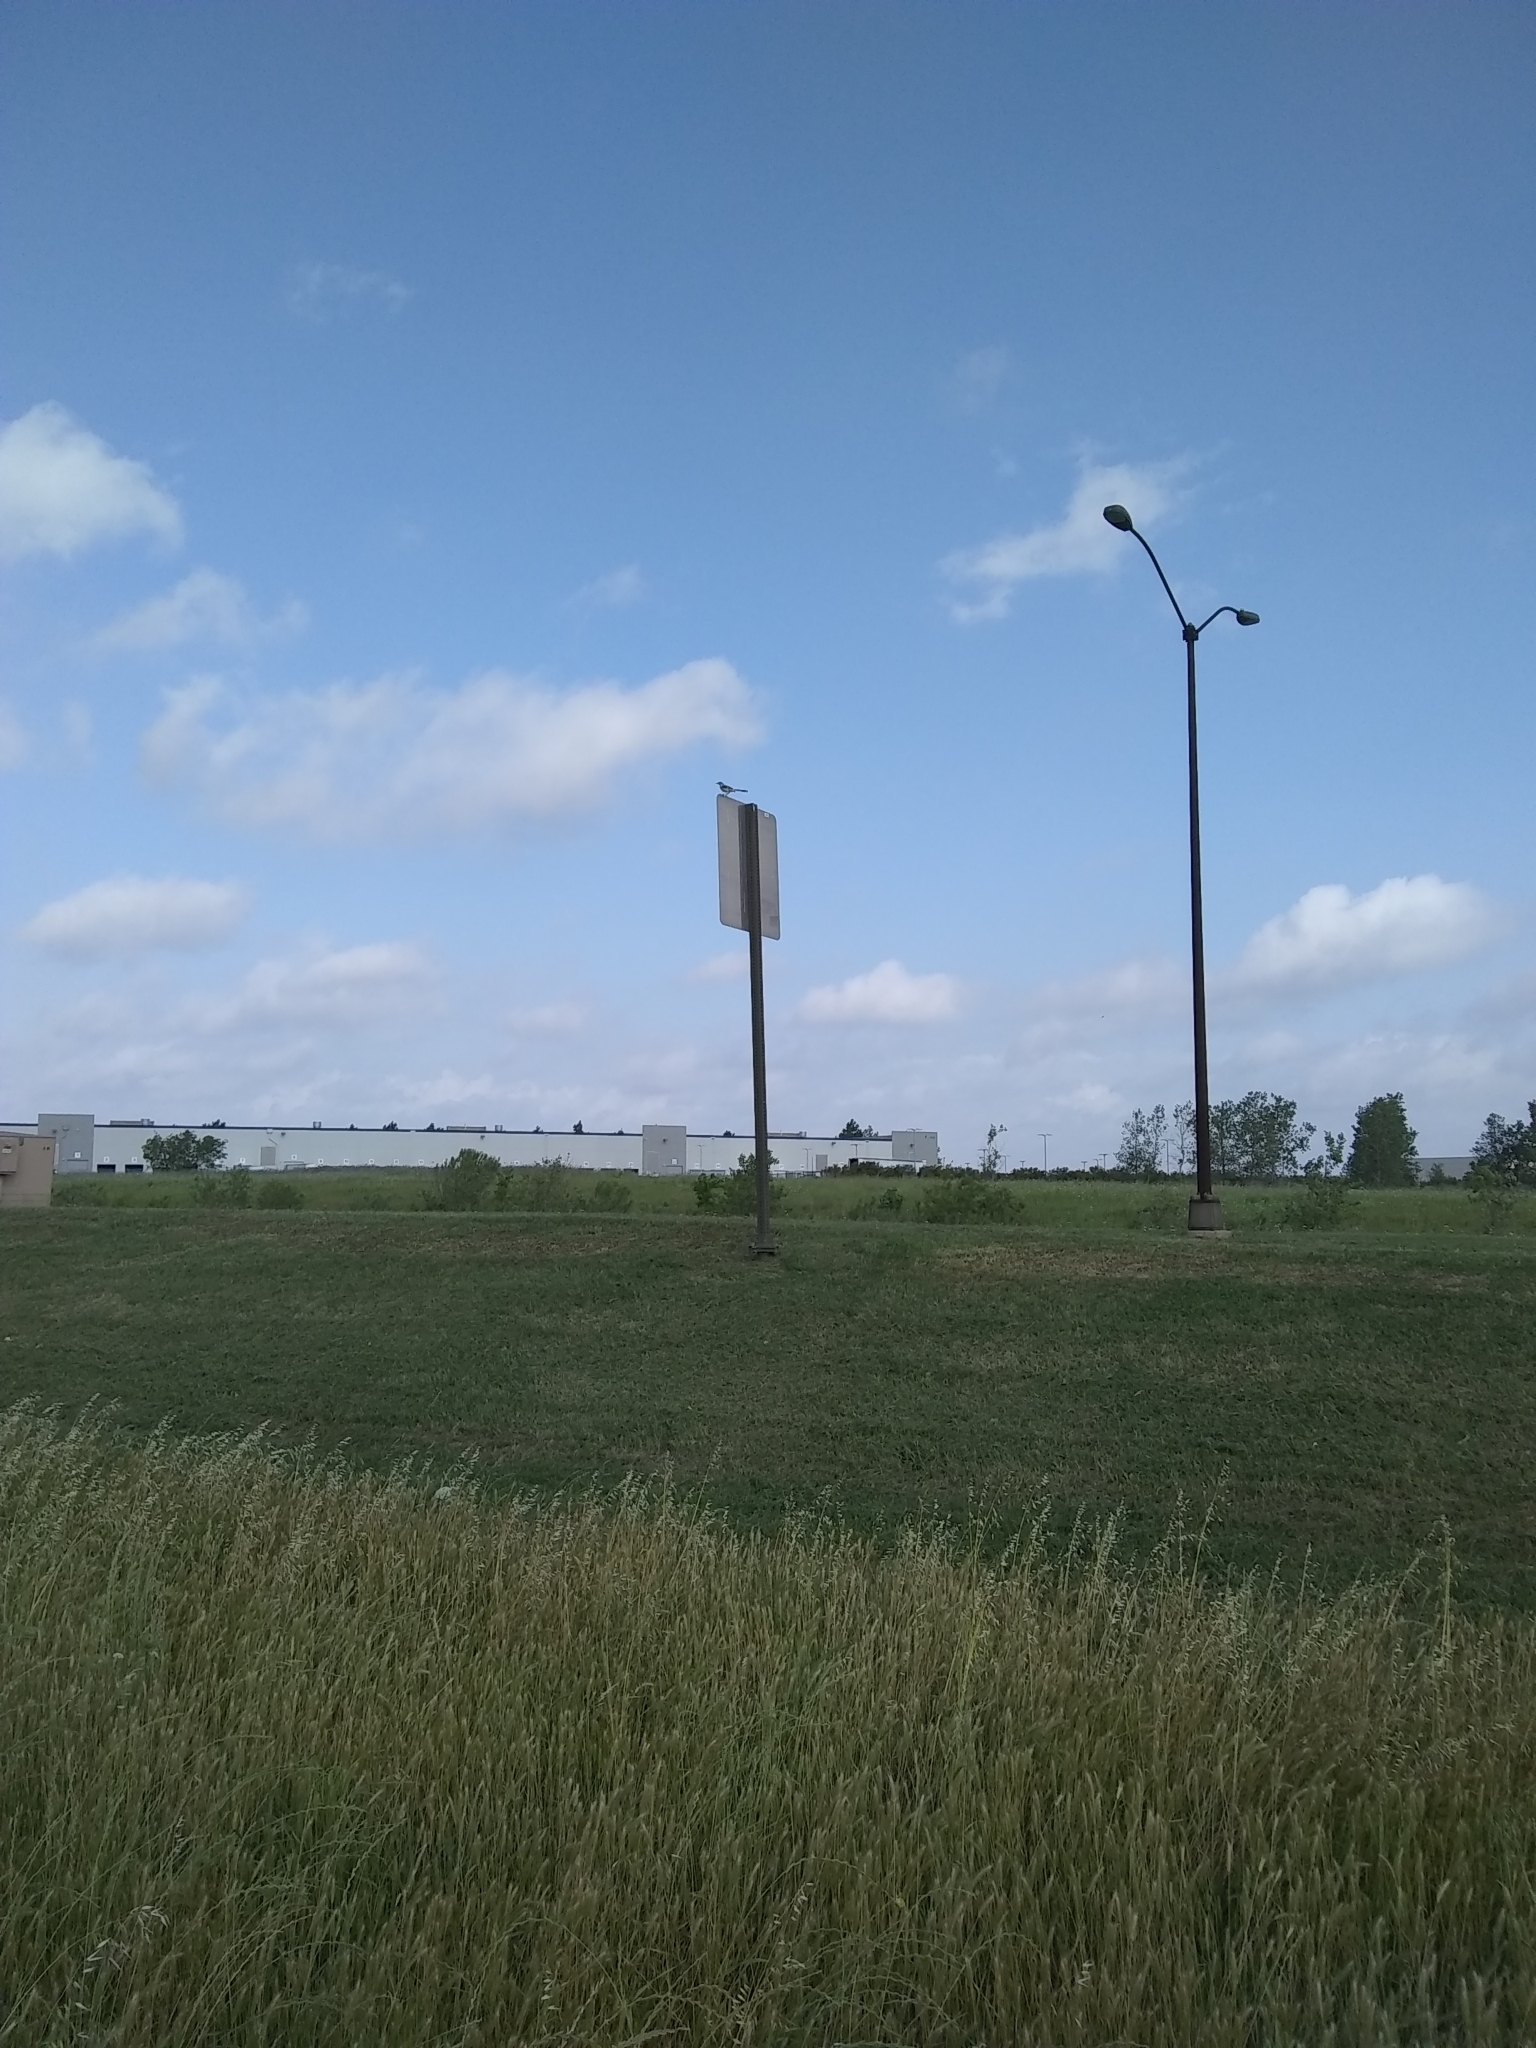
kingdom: Animalia
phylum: Chordata
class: Aves
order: Passeriformes
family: Mimidae
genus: Mimus
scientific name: Mimus polyglottos
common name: Northern mockingbird
